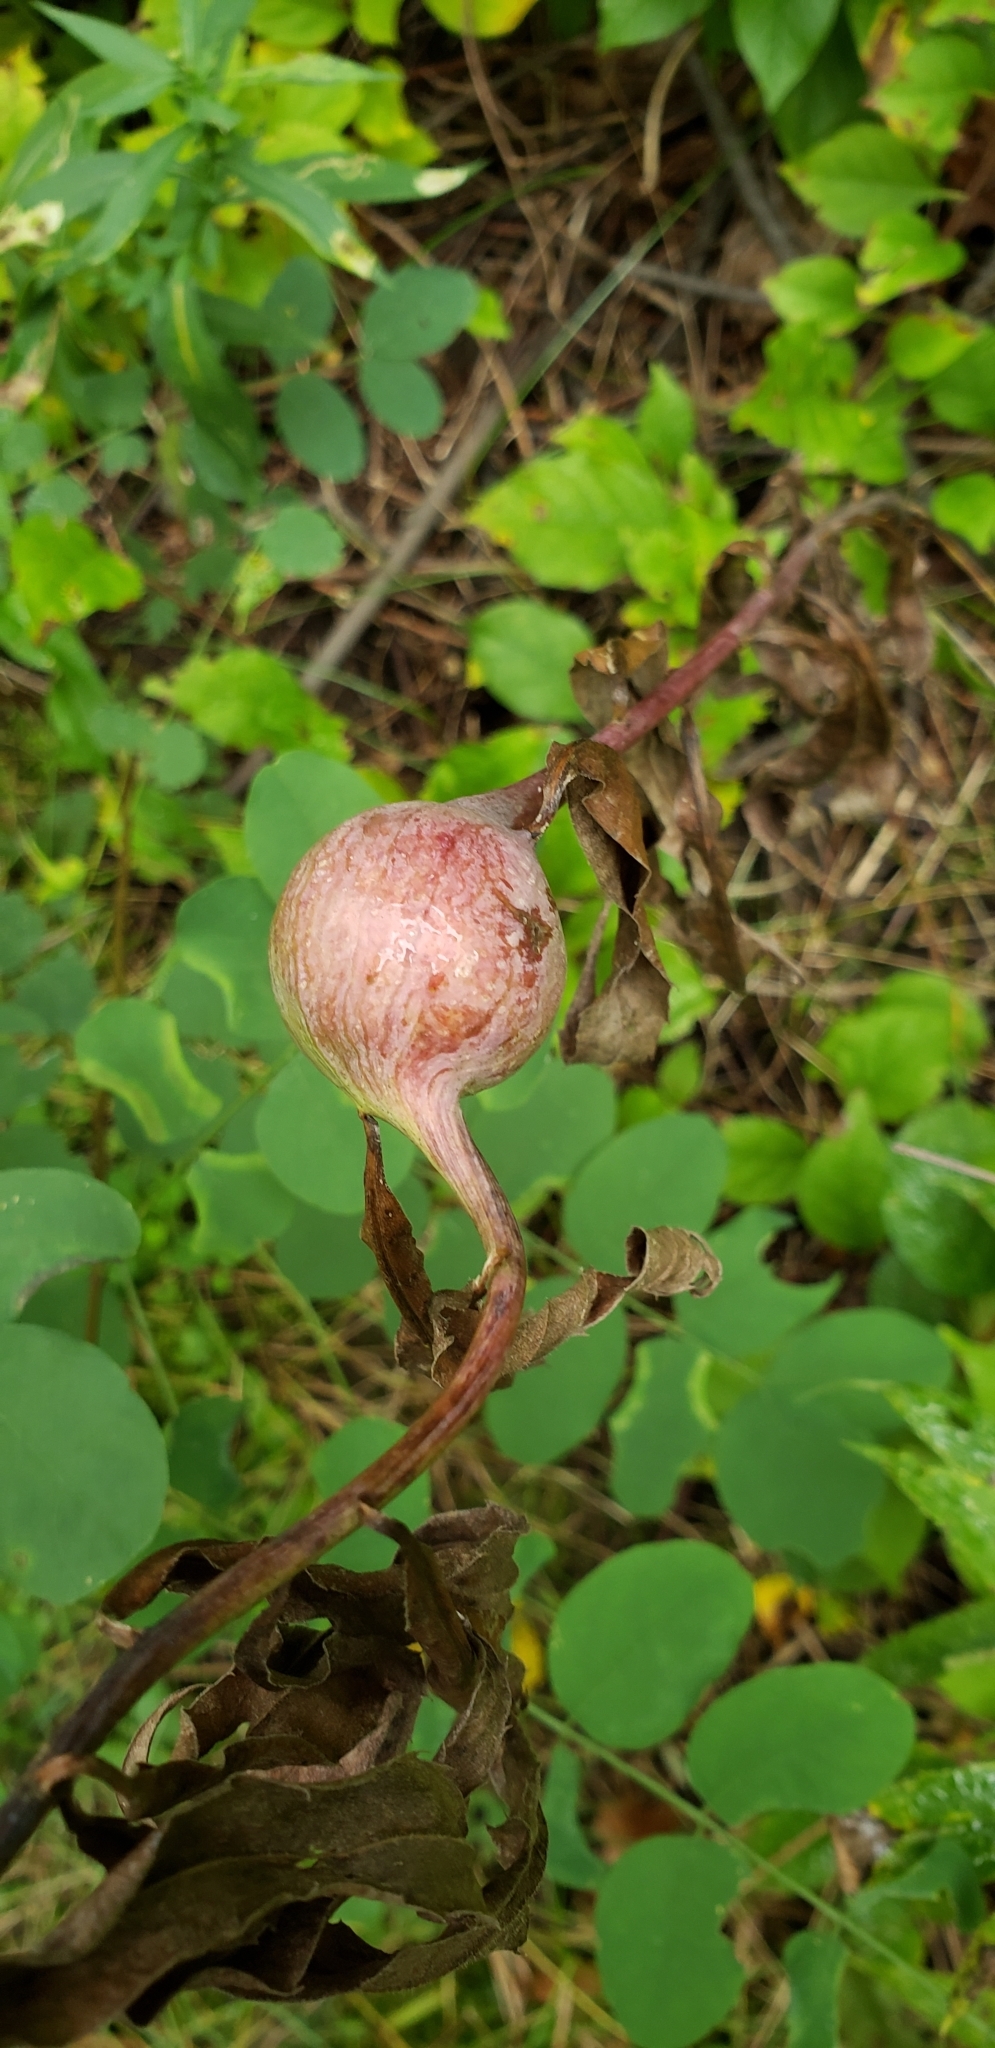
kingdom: Animalia
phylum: Arthropoda
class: Insecta
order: Diptera
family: Tephritidae
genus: Eurosta
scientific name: Eurosta solidaginis
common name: Goldenrod gall fly
